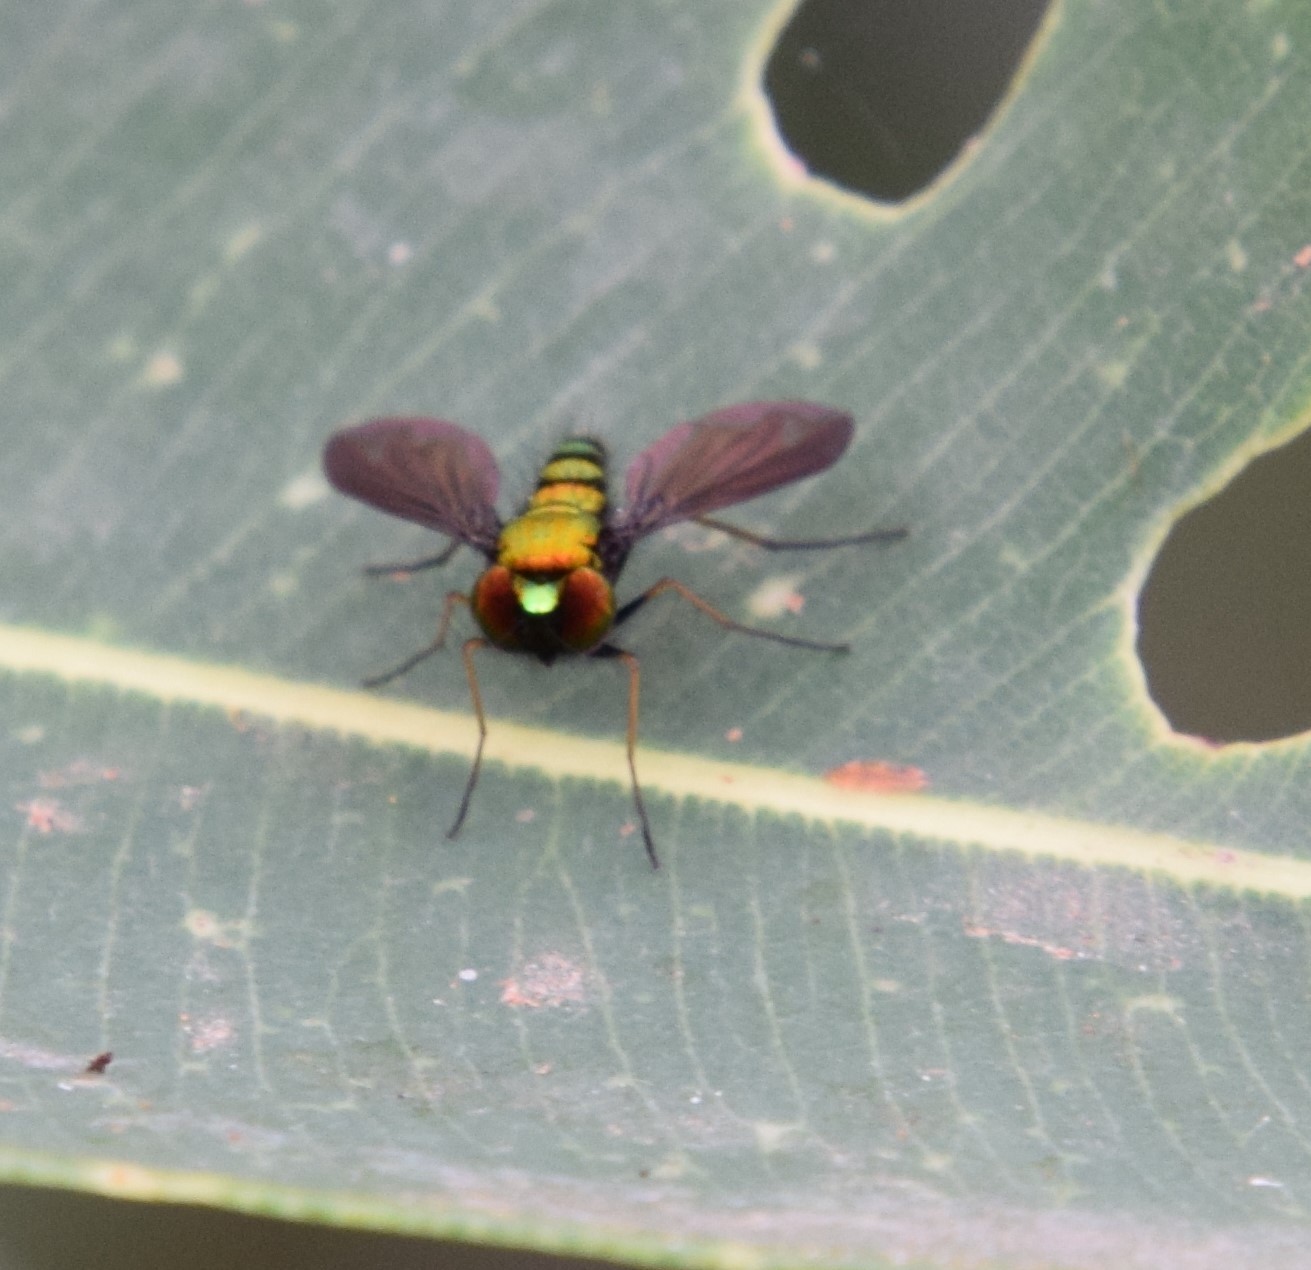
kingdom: Animalia
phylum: Arthropoda
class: Insecta
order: Diptera
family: Dolichopodidae
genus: Krakatauia
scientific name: Krakatauia macalpinei
